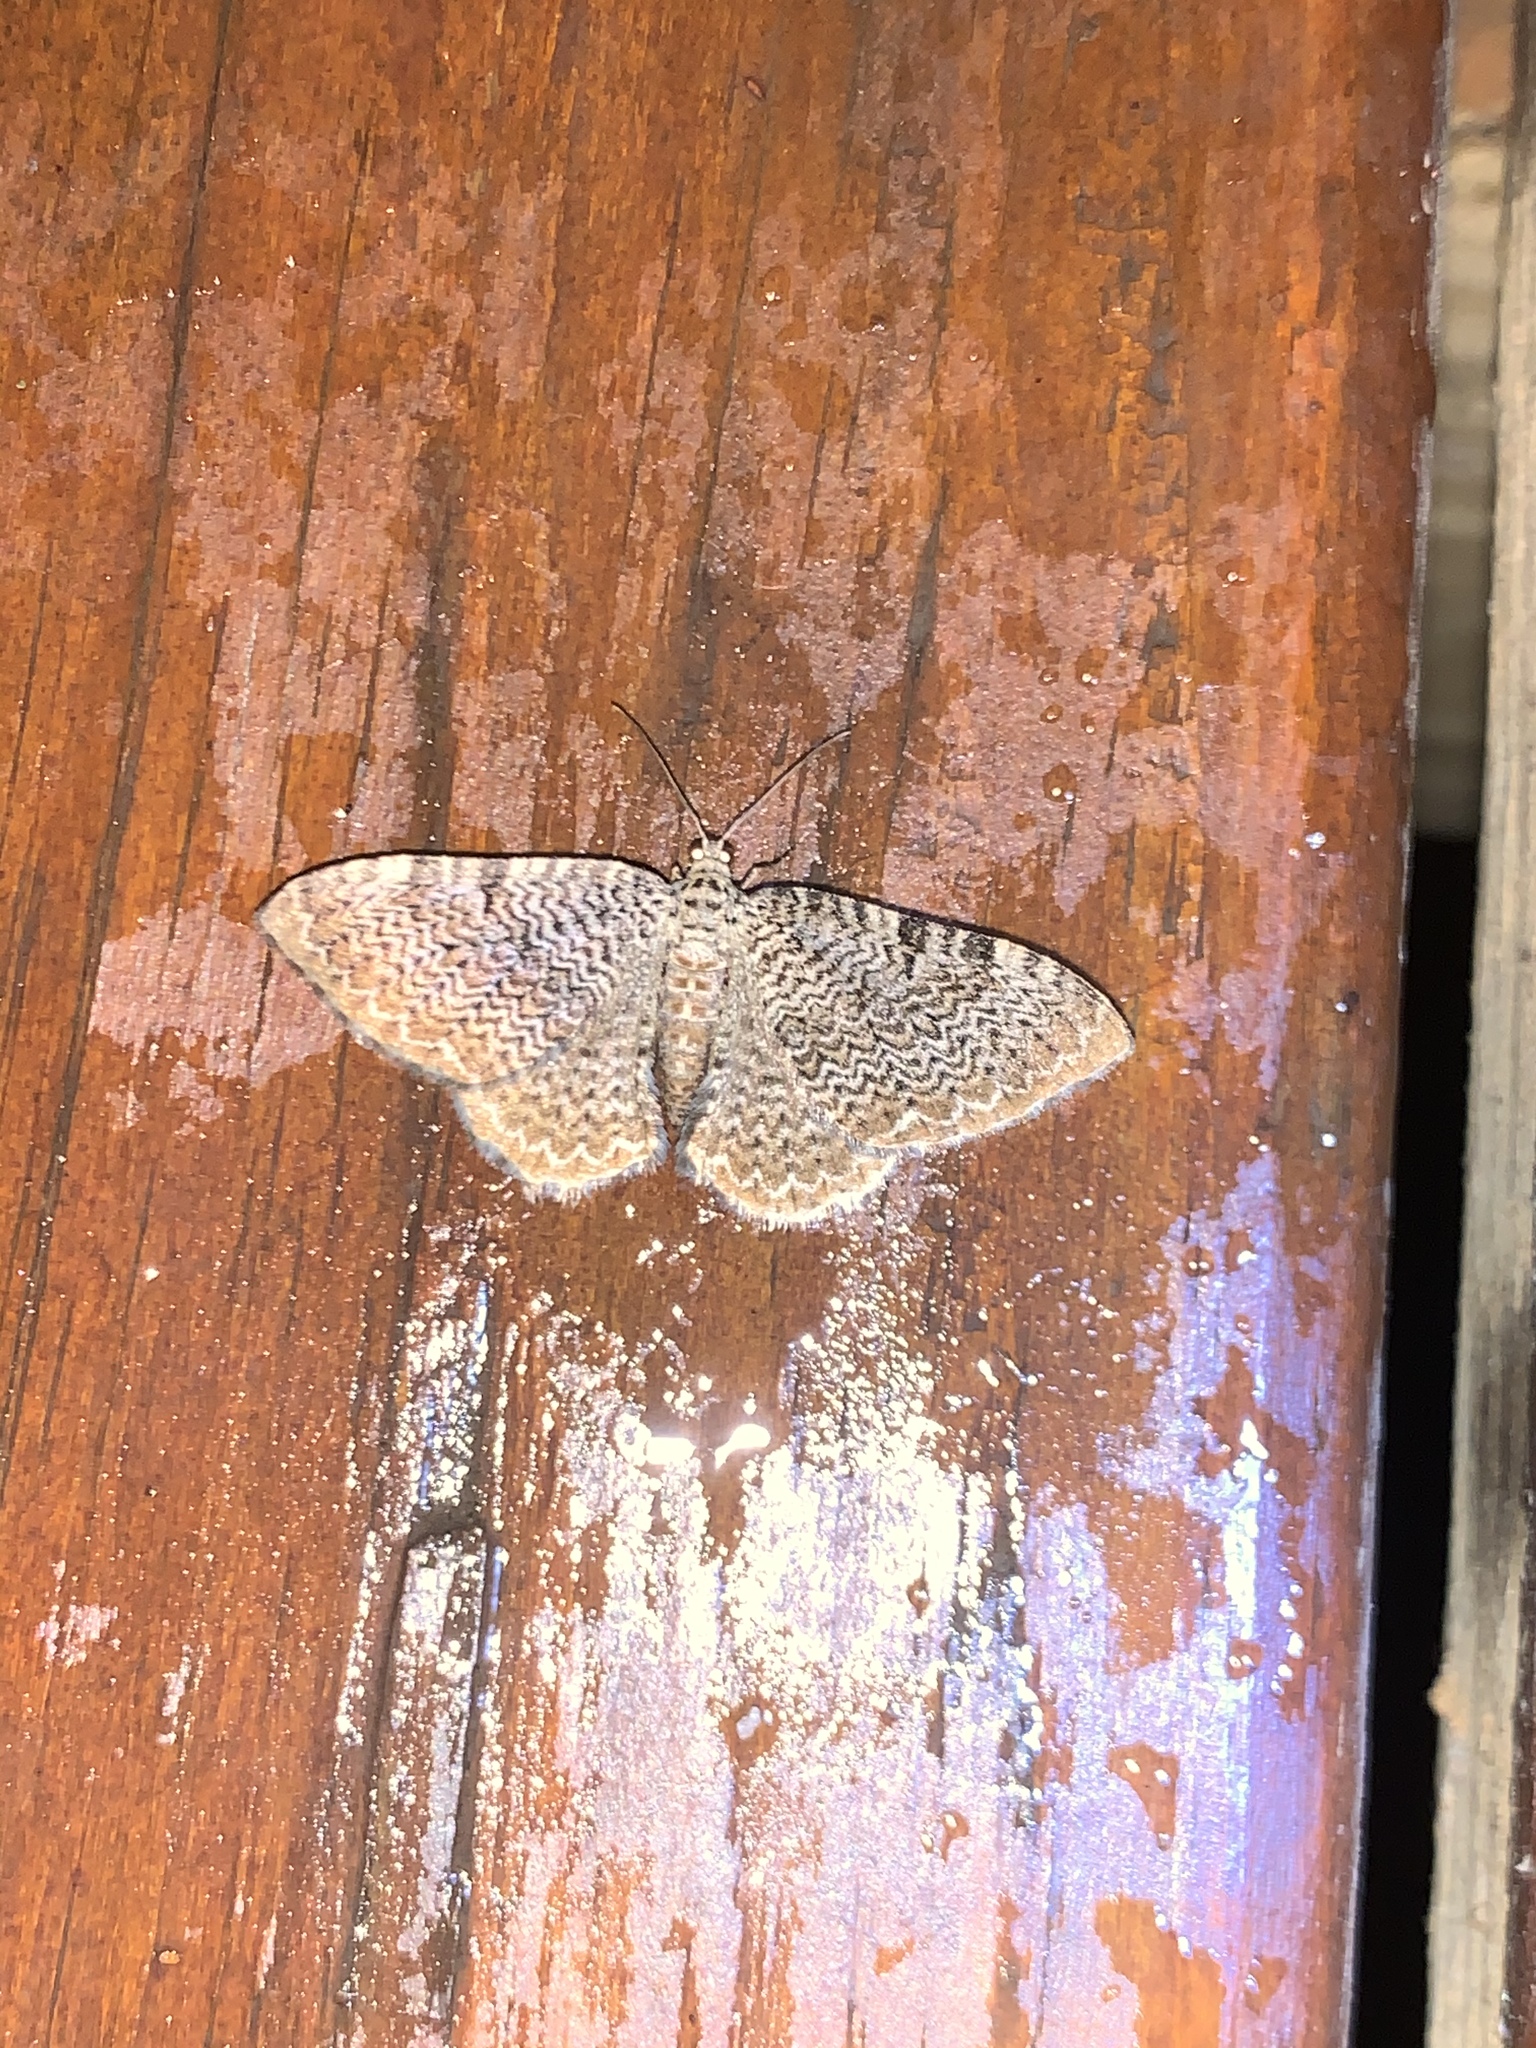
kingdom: Animalia
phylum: Arthropoda
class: Insecta
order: Lepidoptera
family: Geometridae
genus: Rheumaptera
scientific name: Rheumaptera prunivorata
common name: Cherry scallop shell moth
